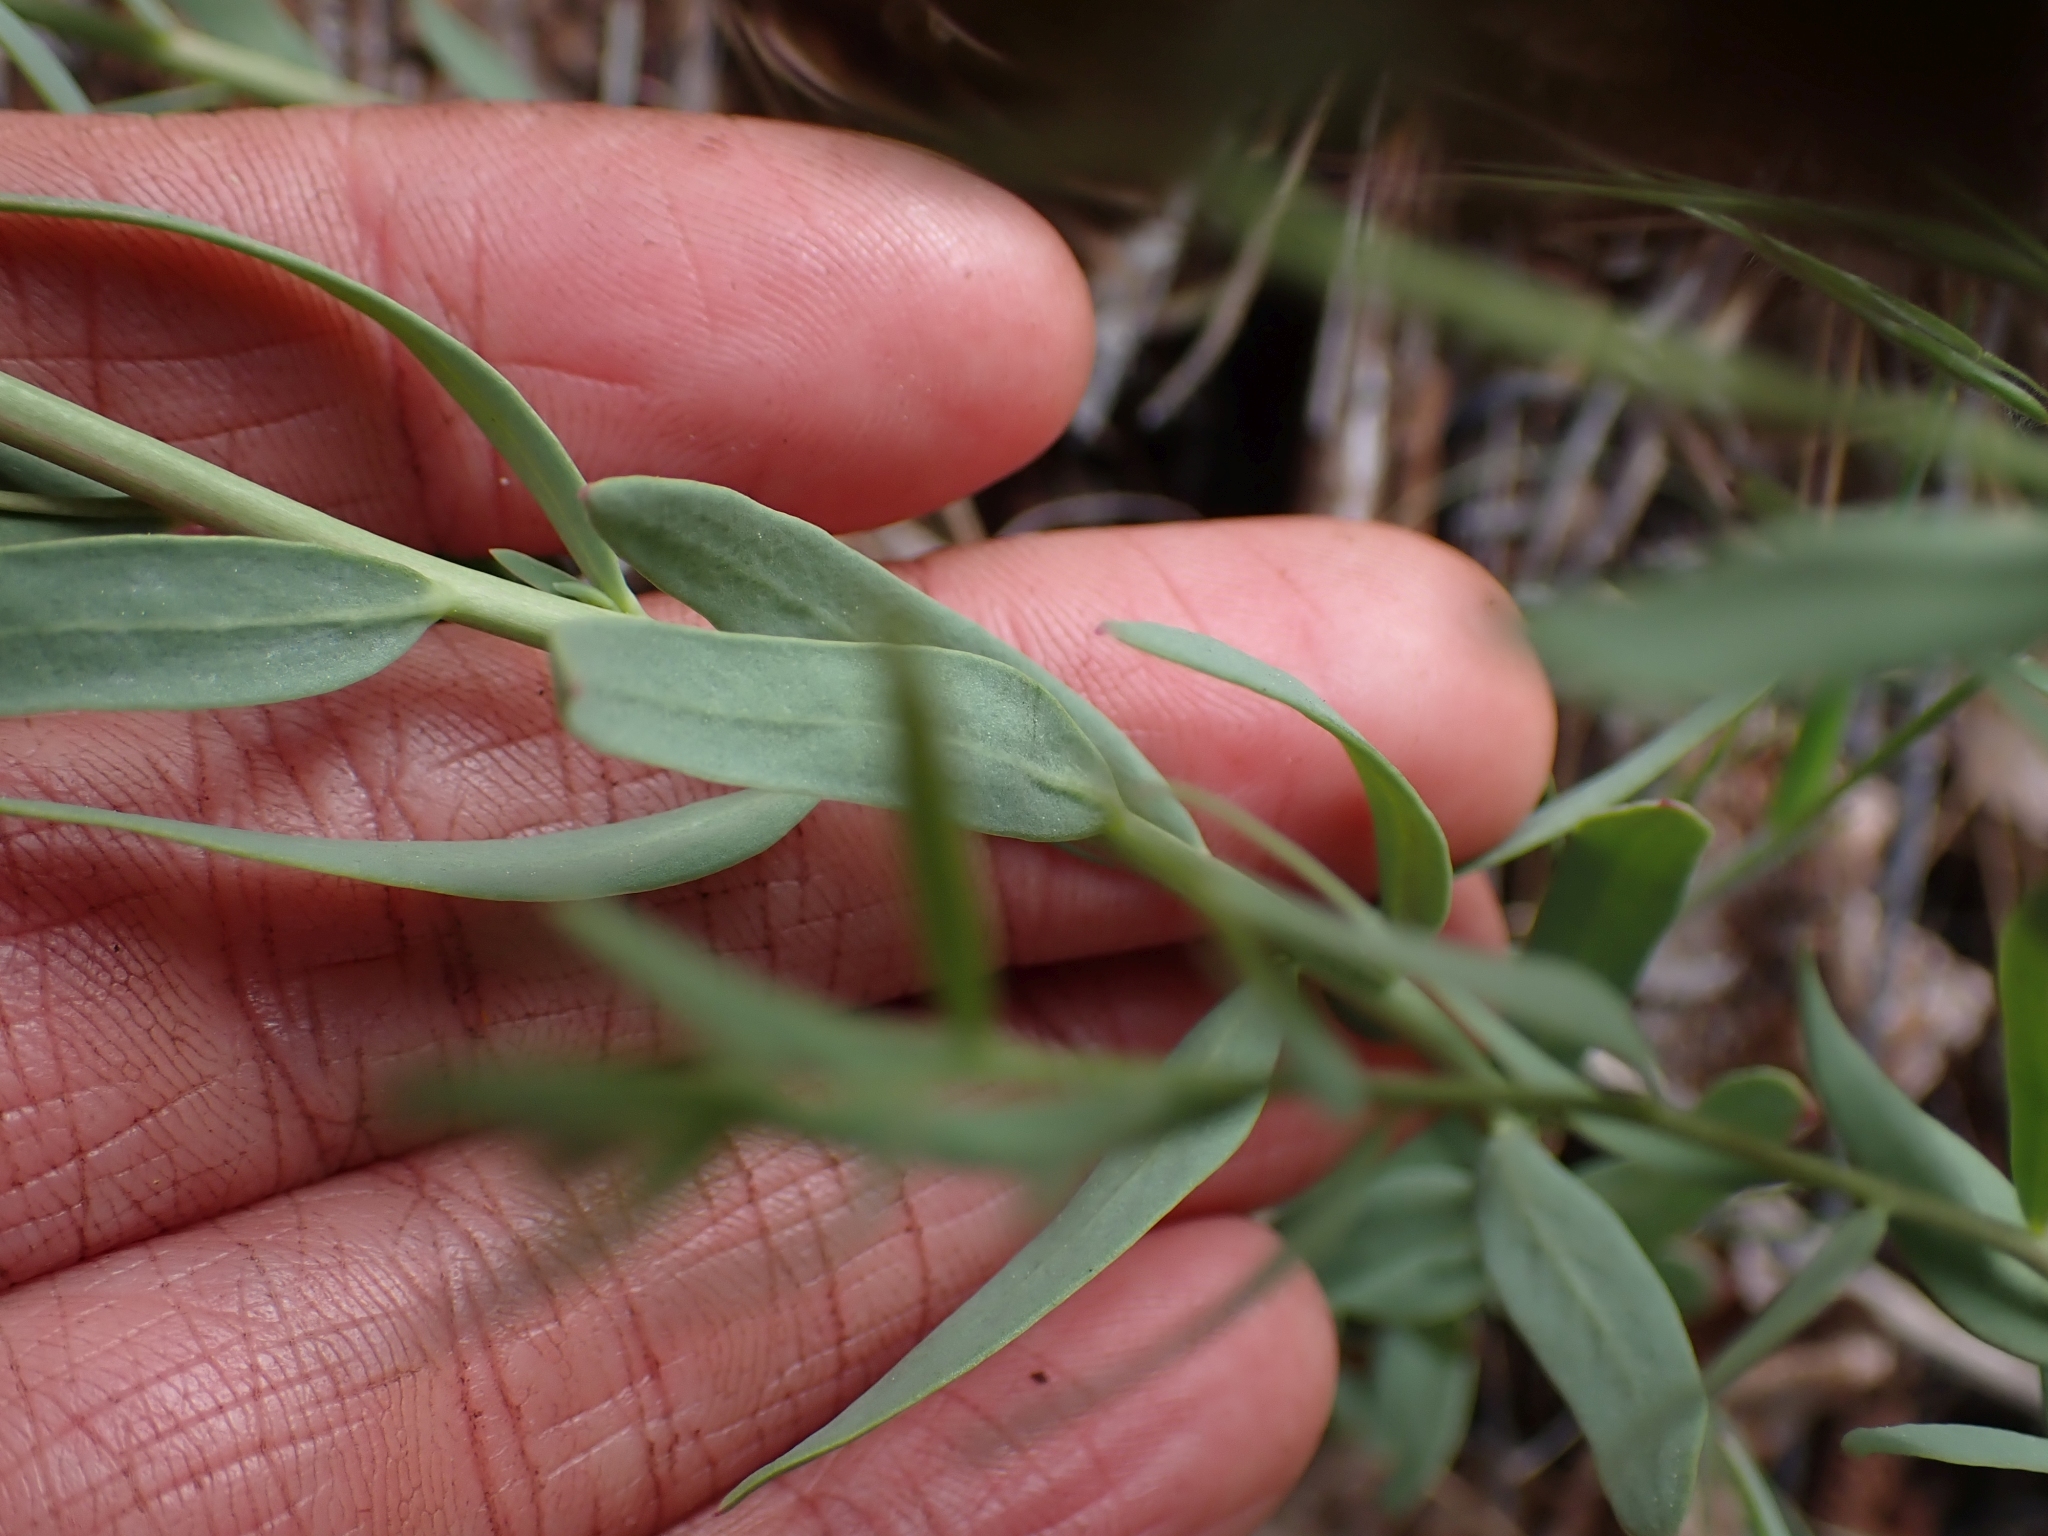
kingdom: Plantae
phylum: Tracheophyta
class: Magnoliopsida
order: Santalales
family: Comandraceae
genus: Comandra
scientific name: Comandra umbellata
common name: Bastard toadflax
